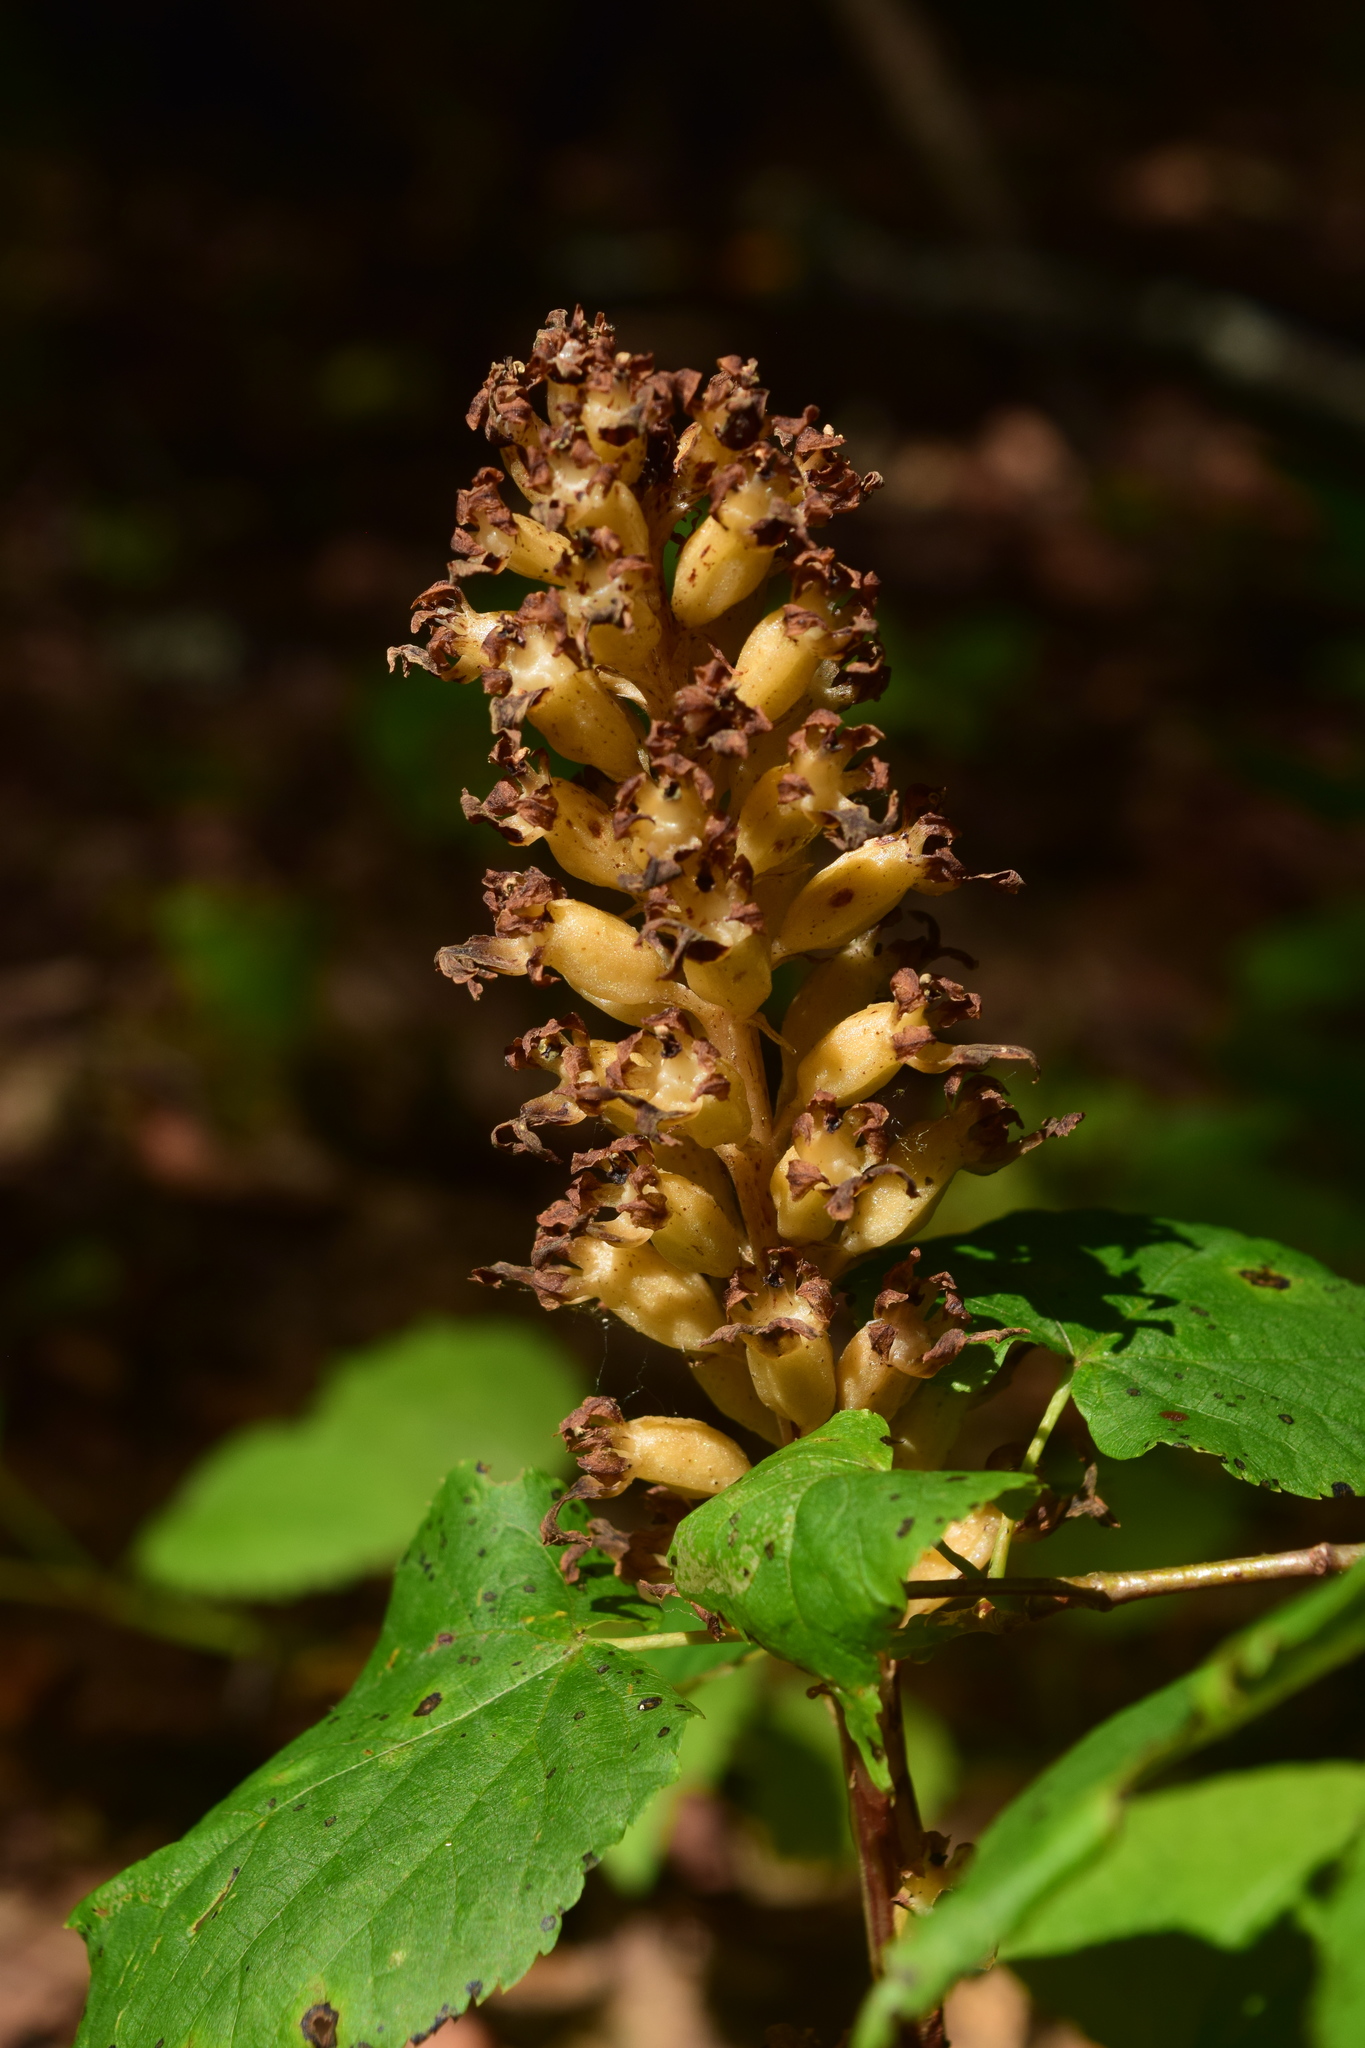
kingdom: Plantae
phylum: Tracheophyta
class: Liliopsida
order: Asparagales
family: Orchidaceae
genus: Neottia
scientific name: Neottia nidus-avis
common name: Bird's-nest orchid
